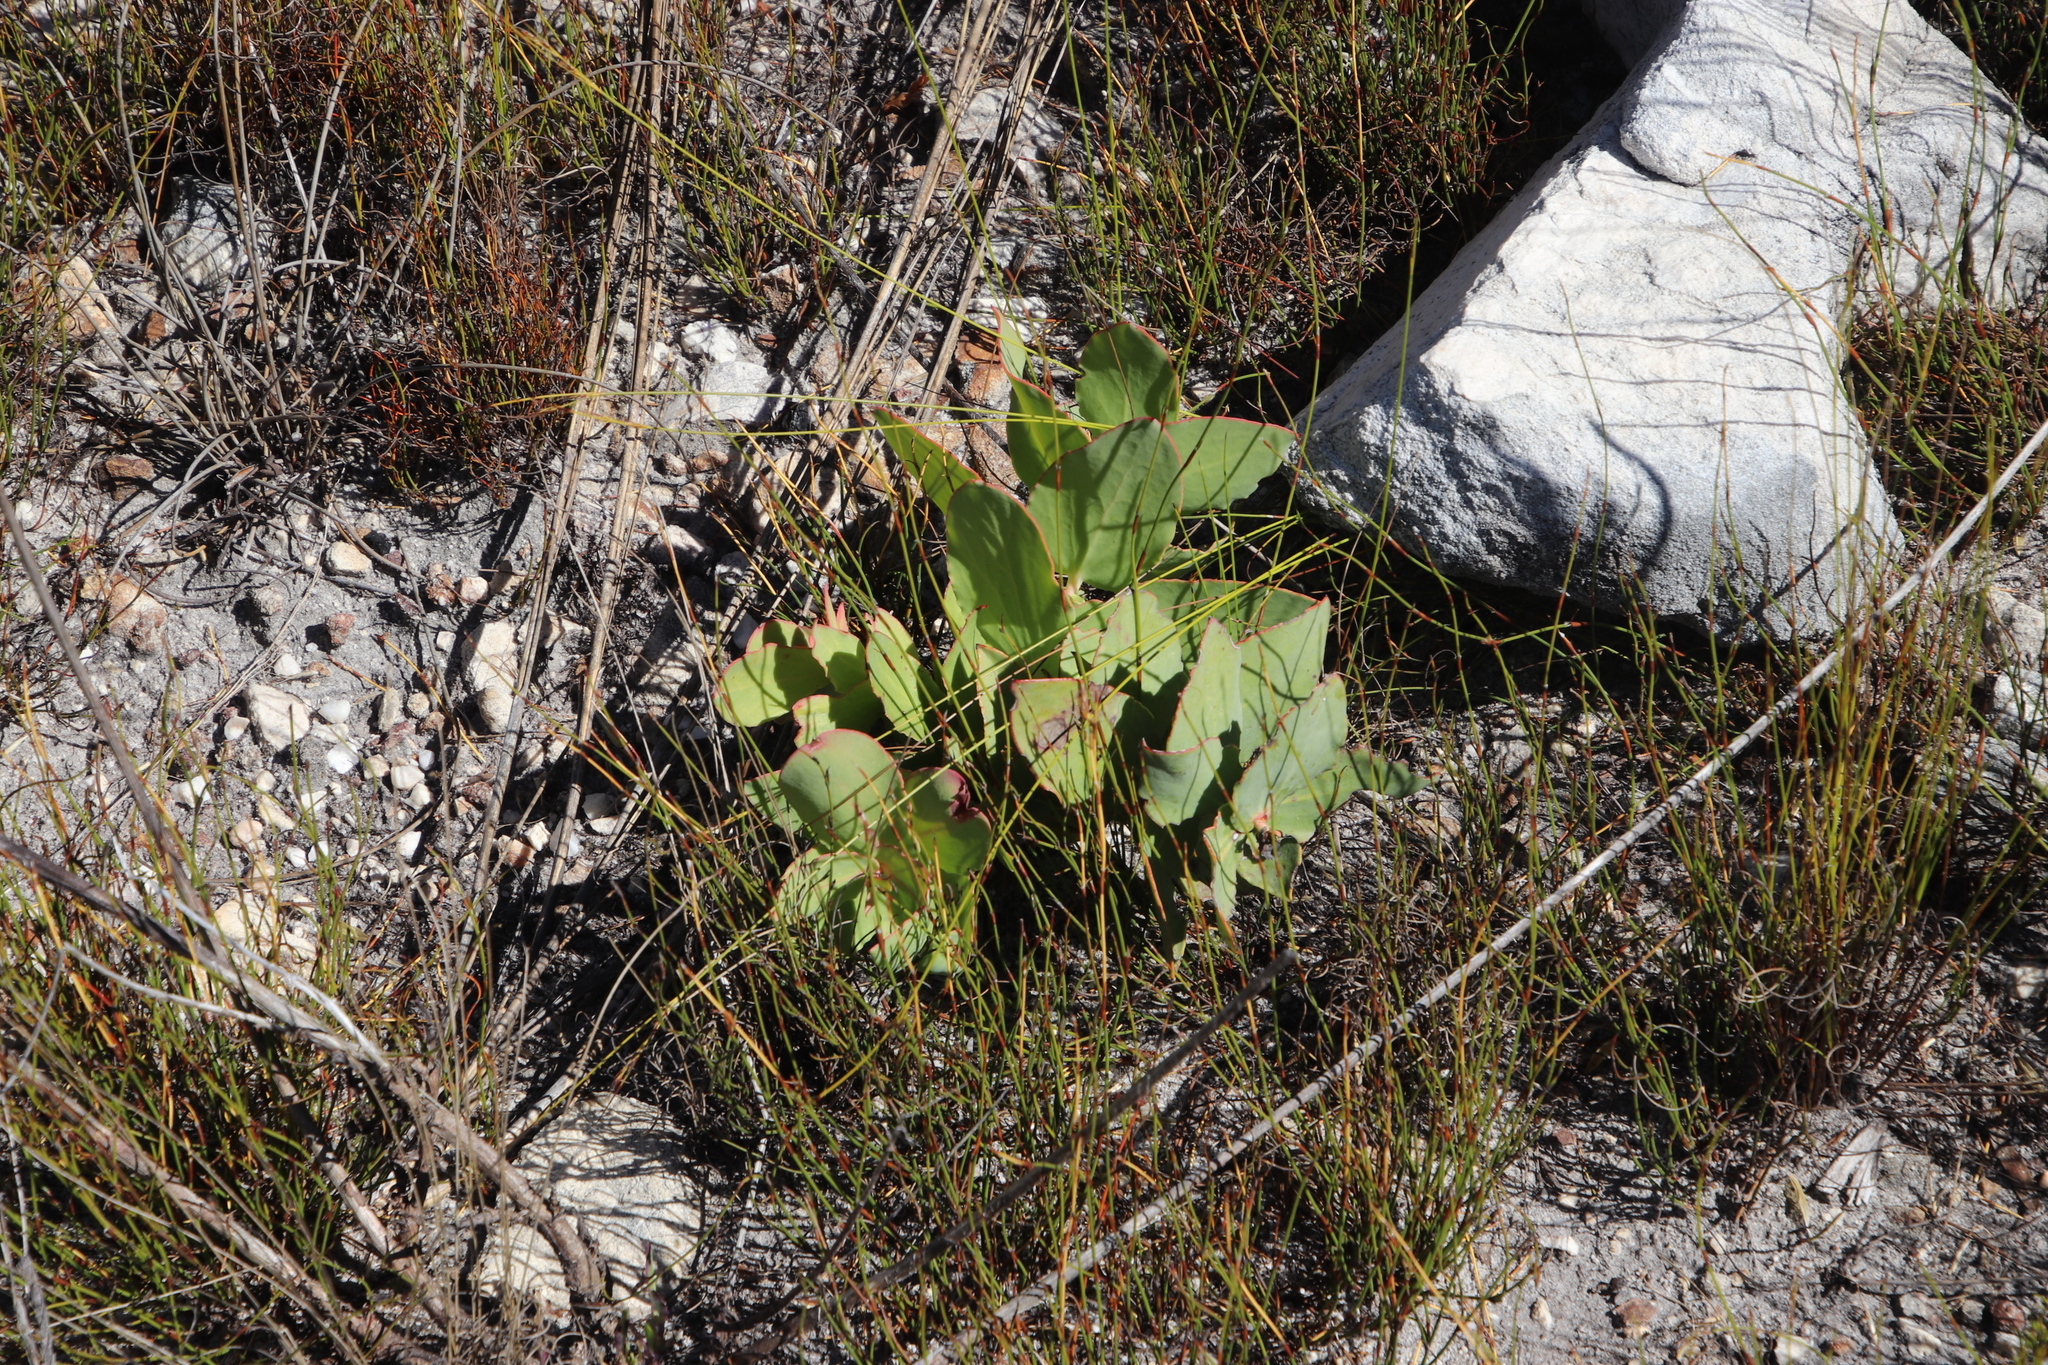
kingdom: Plantae
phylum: Tracheophyta
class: Magnoliopsida
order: Proteales
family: Proteaceae
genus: Protea
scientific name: Protea amplexicaulis
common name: Clasping-leaf sugarbush
